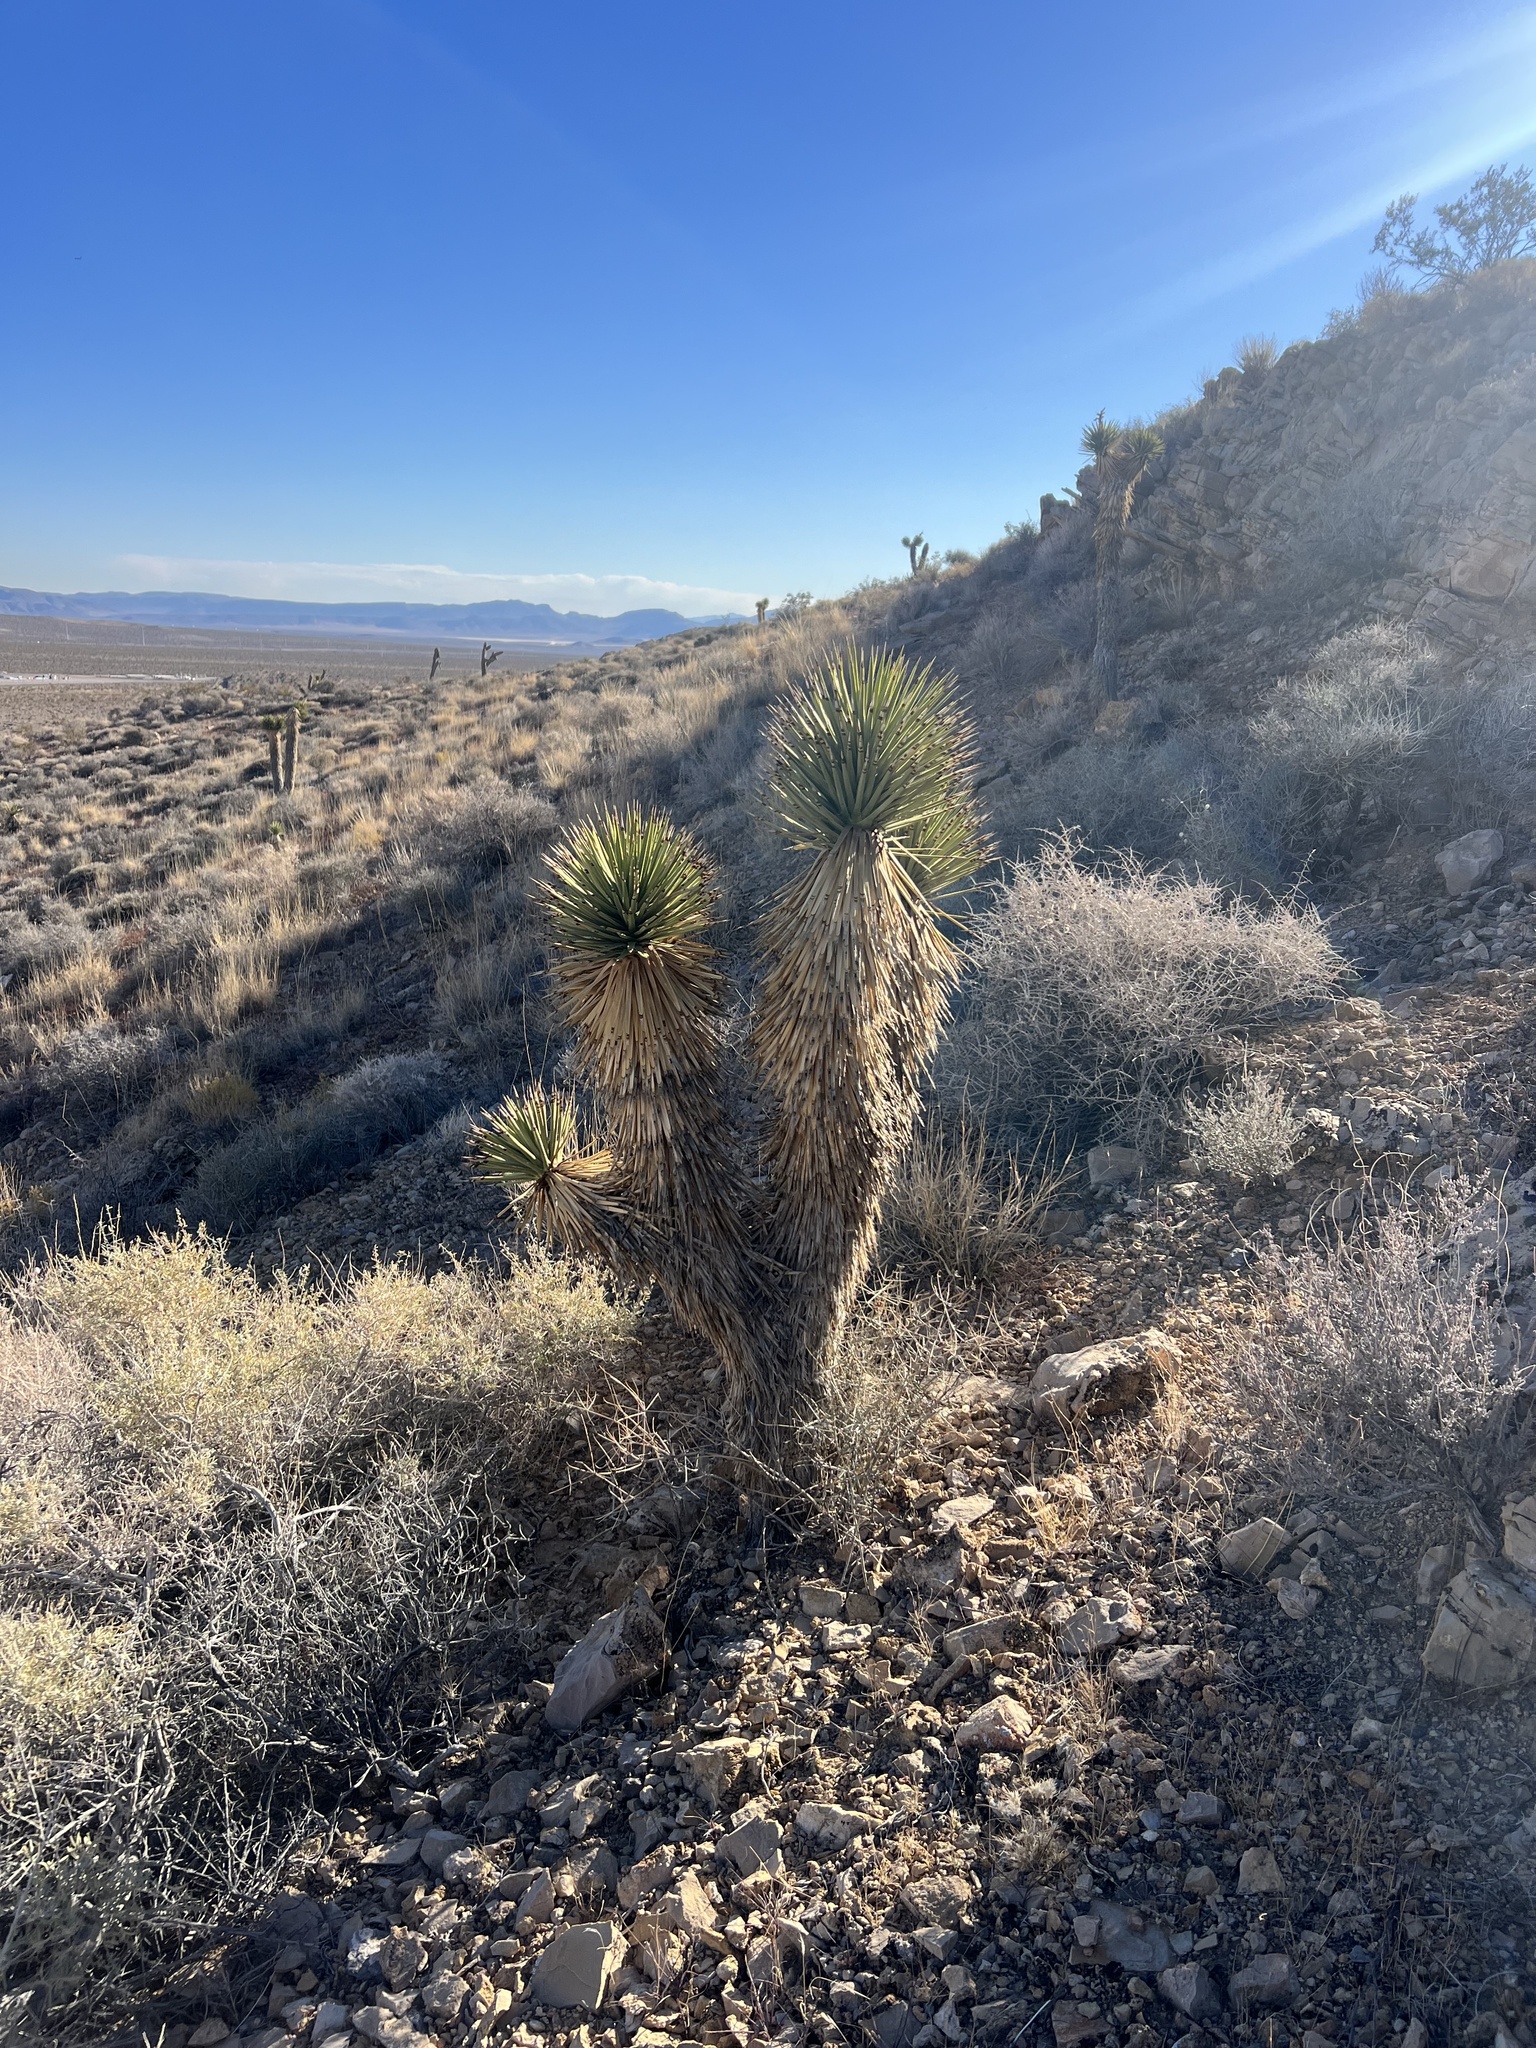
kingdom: Plantae
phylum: Tracheophyta
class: Liliopsida
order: Asparagales
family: Asparagaceae
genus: Yucca
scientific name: Yucca brevifolia
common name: Joshua tree
